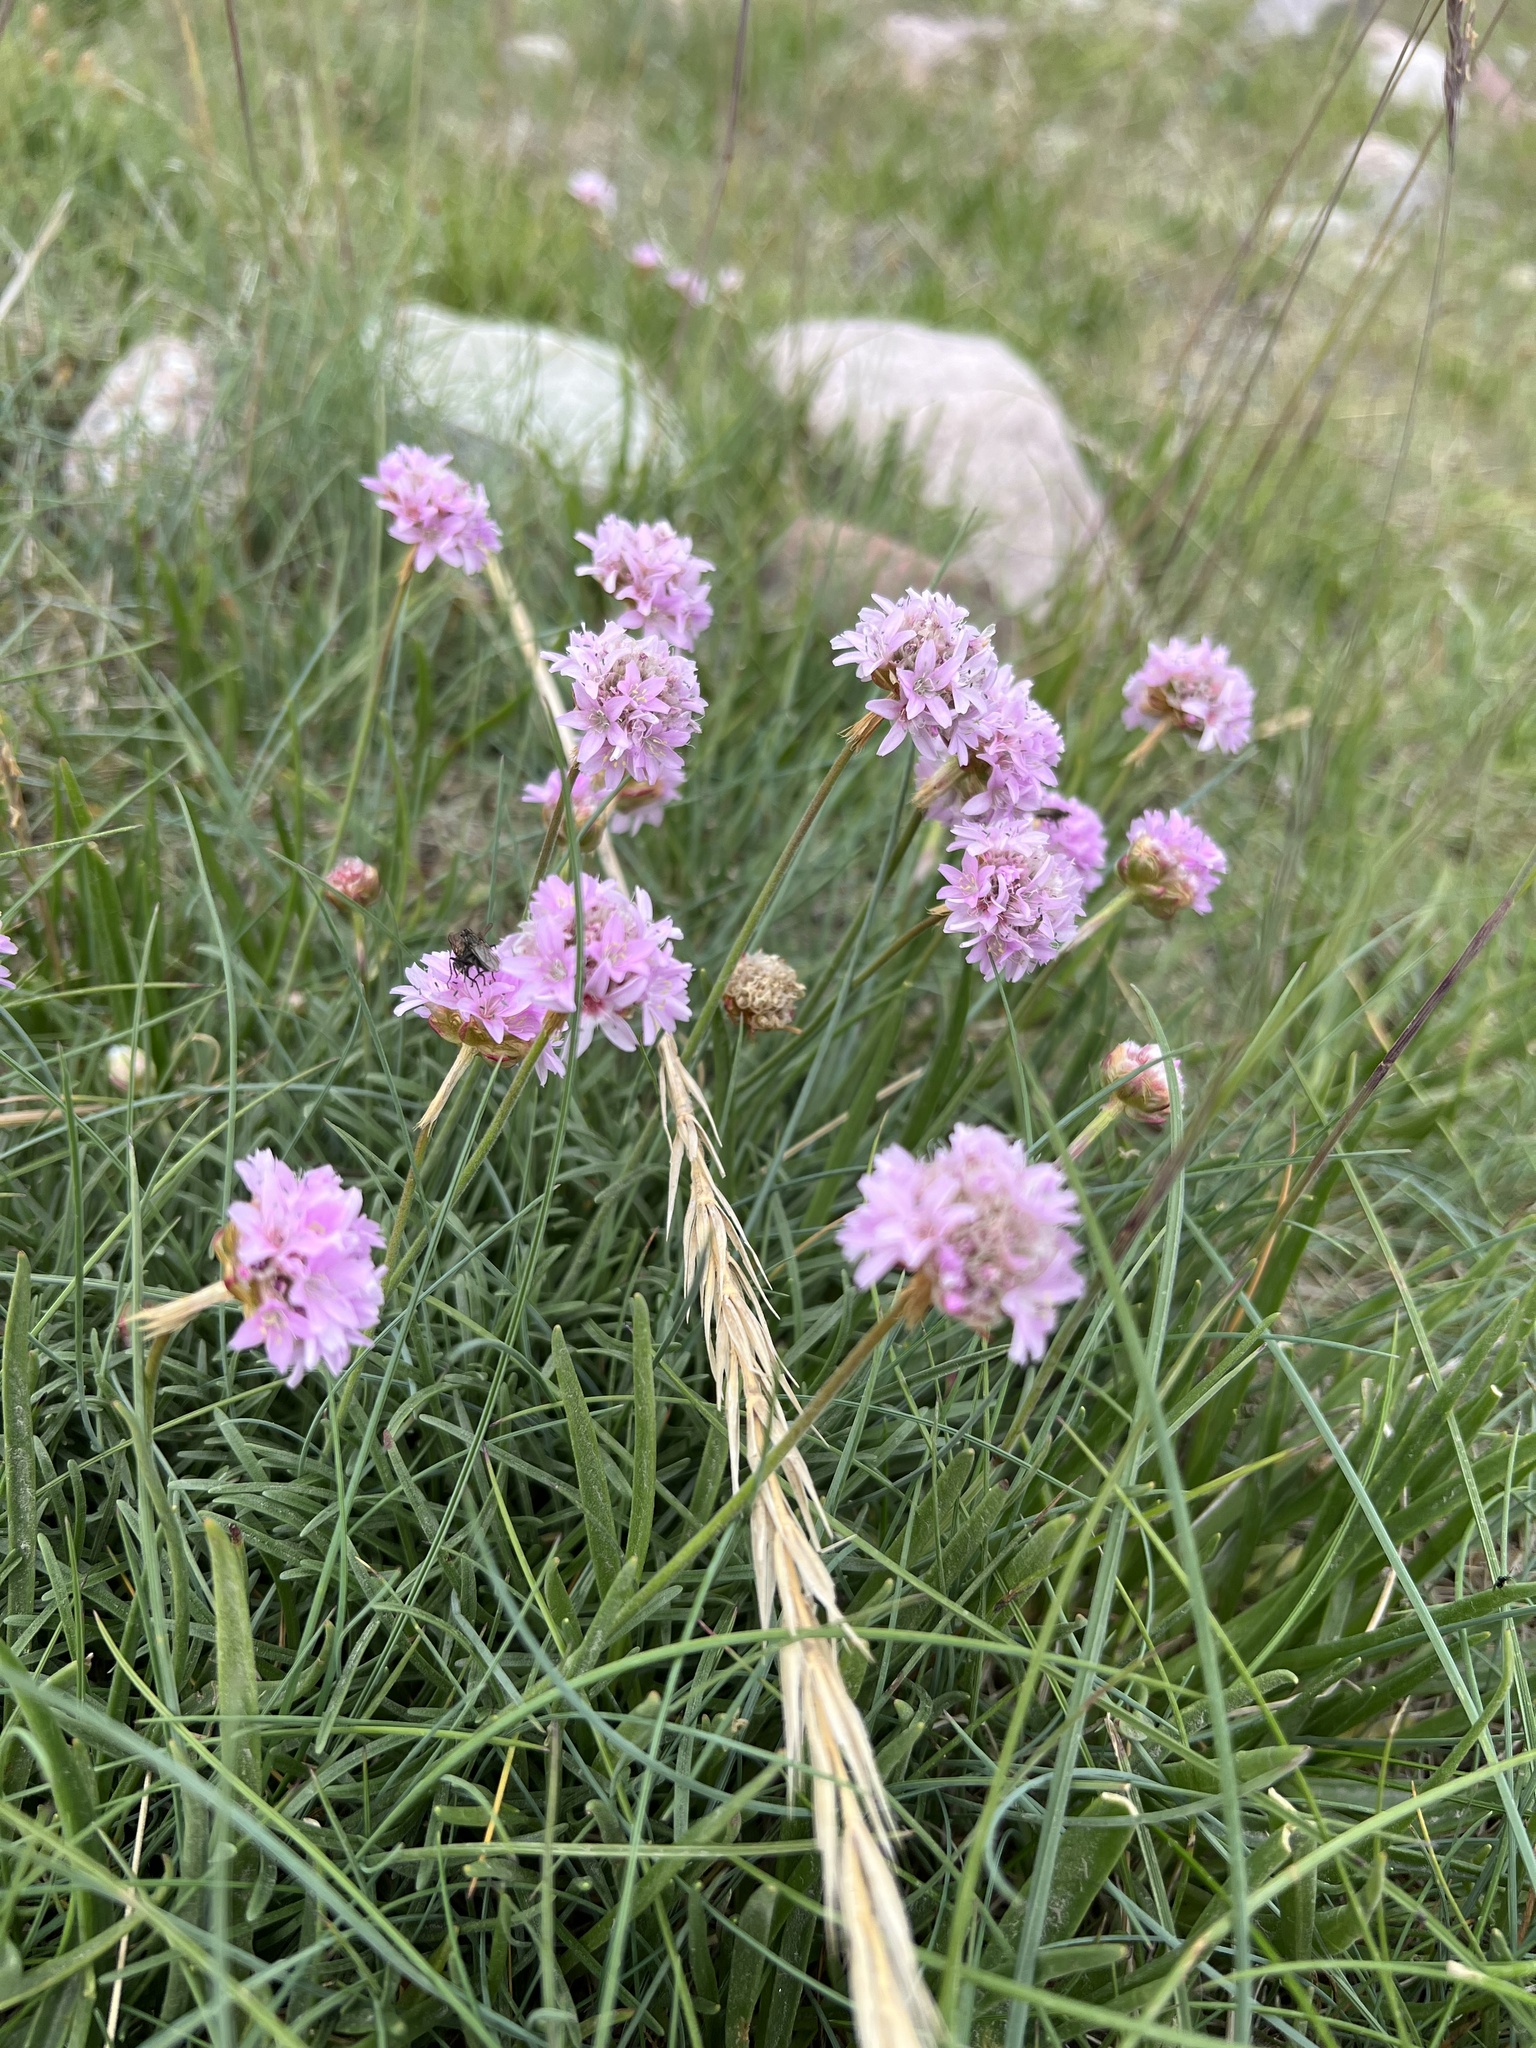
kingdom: Plantae
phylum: Tracheophyta
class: Magnoliopsida
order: Caryophyllales
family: Plumbaginaceae
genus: Armeria
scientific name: Armeria maritima
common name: Thrift
